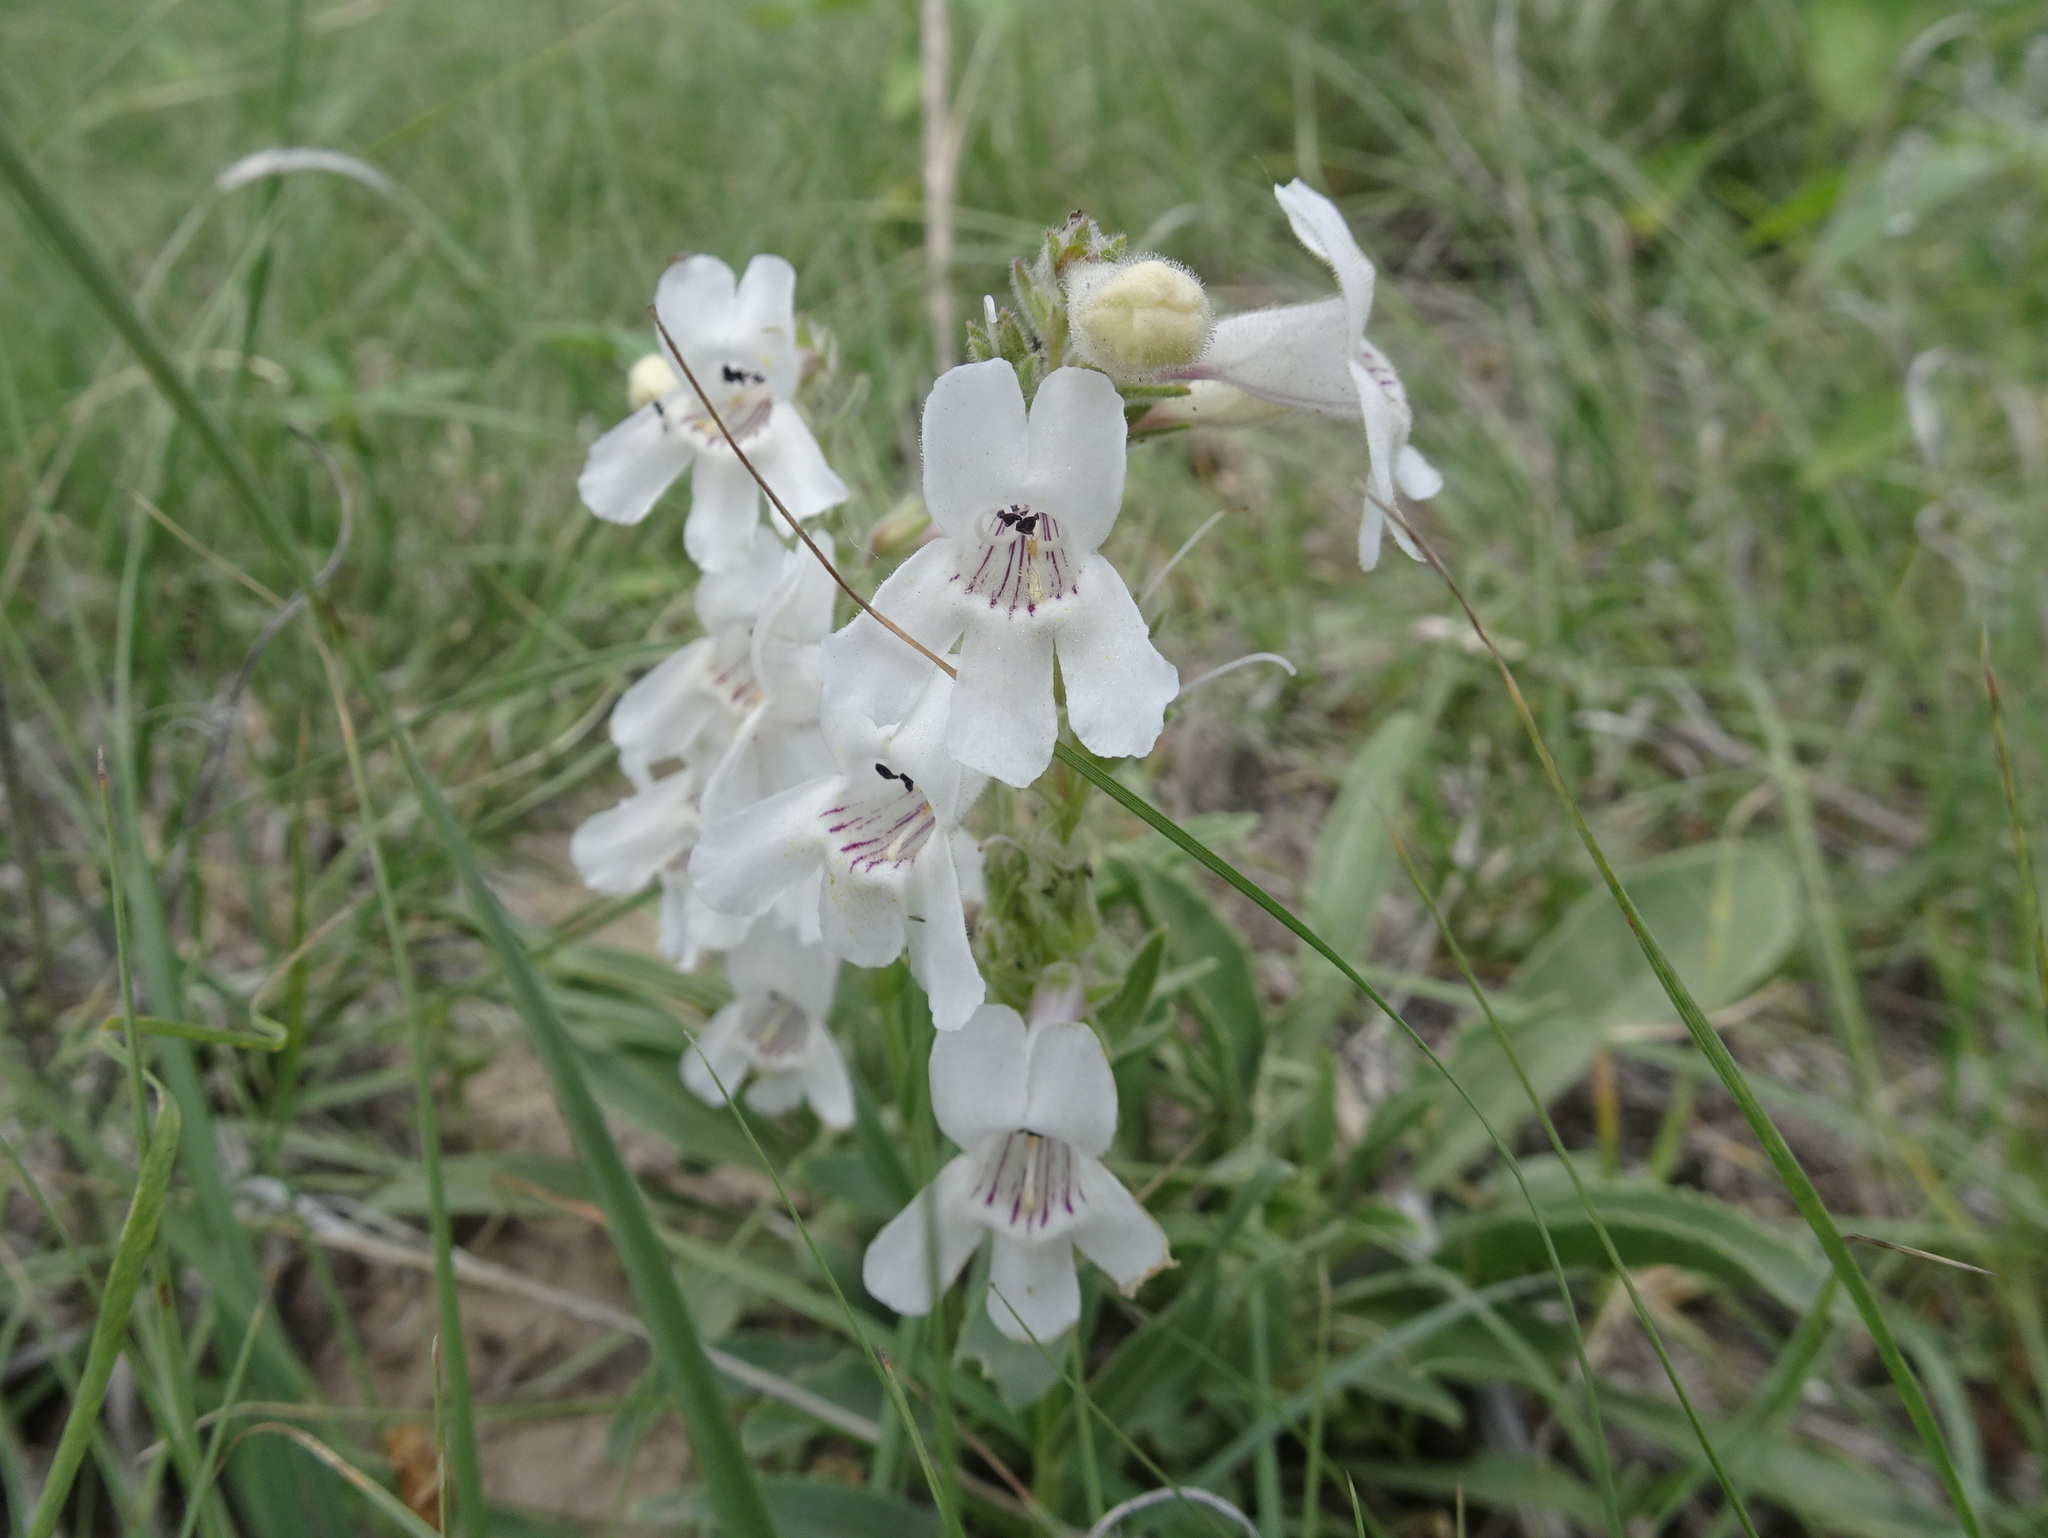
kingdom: Plantae
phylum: Tracheophyta
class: Magnoliopsida
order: Lamiales
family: Plantaginaceae
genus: Penstemon
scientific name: Penstemon albidus
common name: White beardtongue
